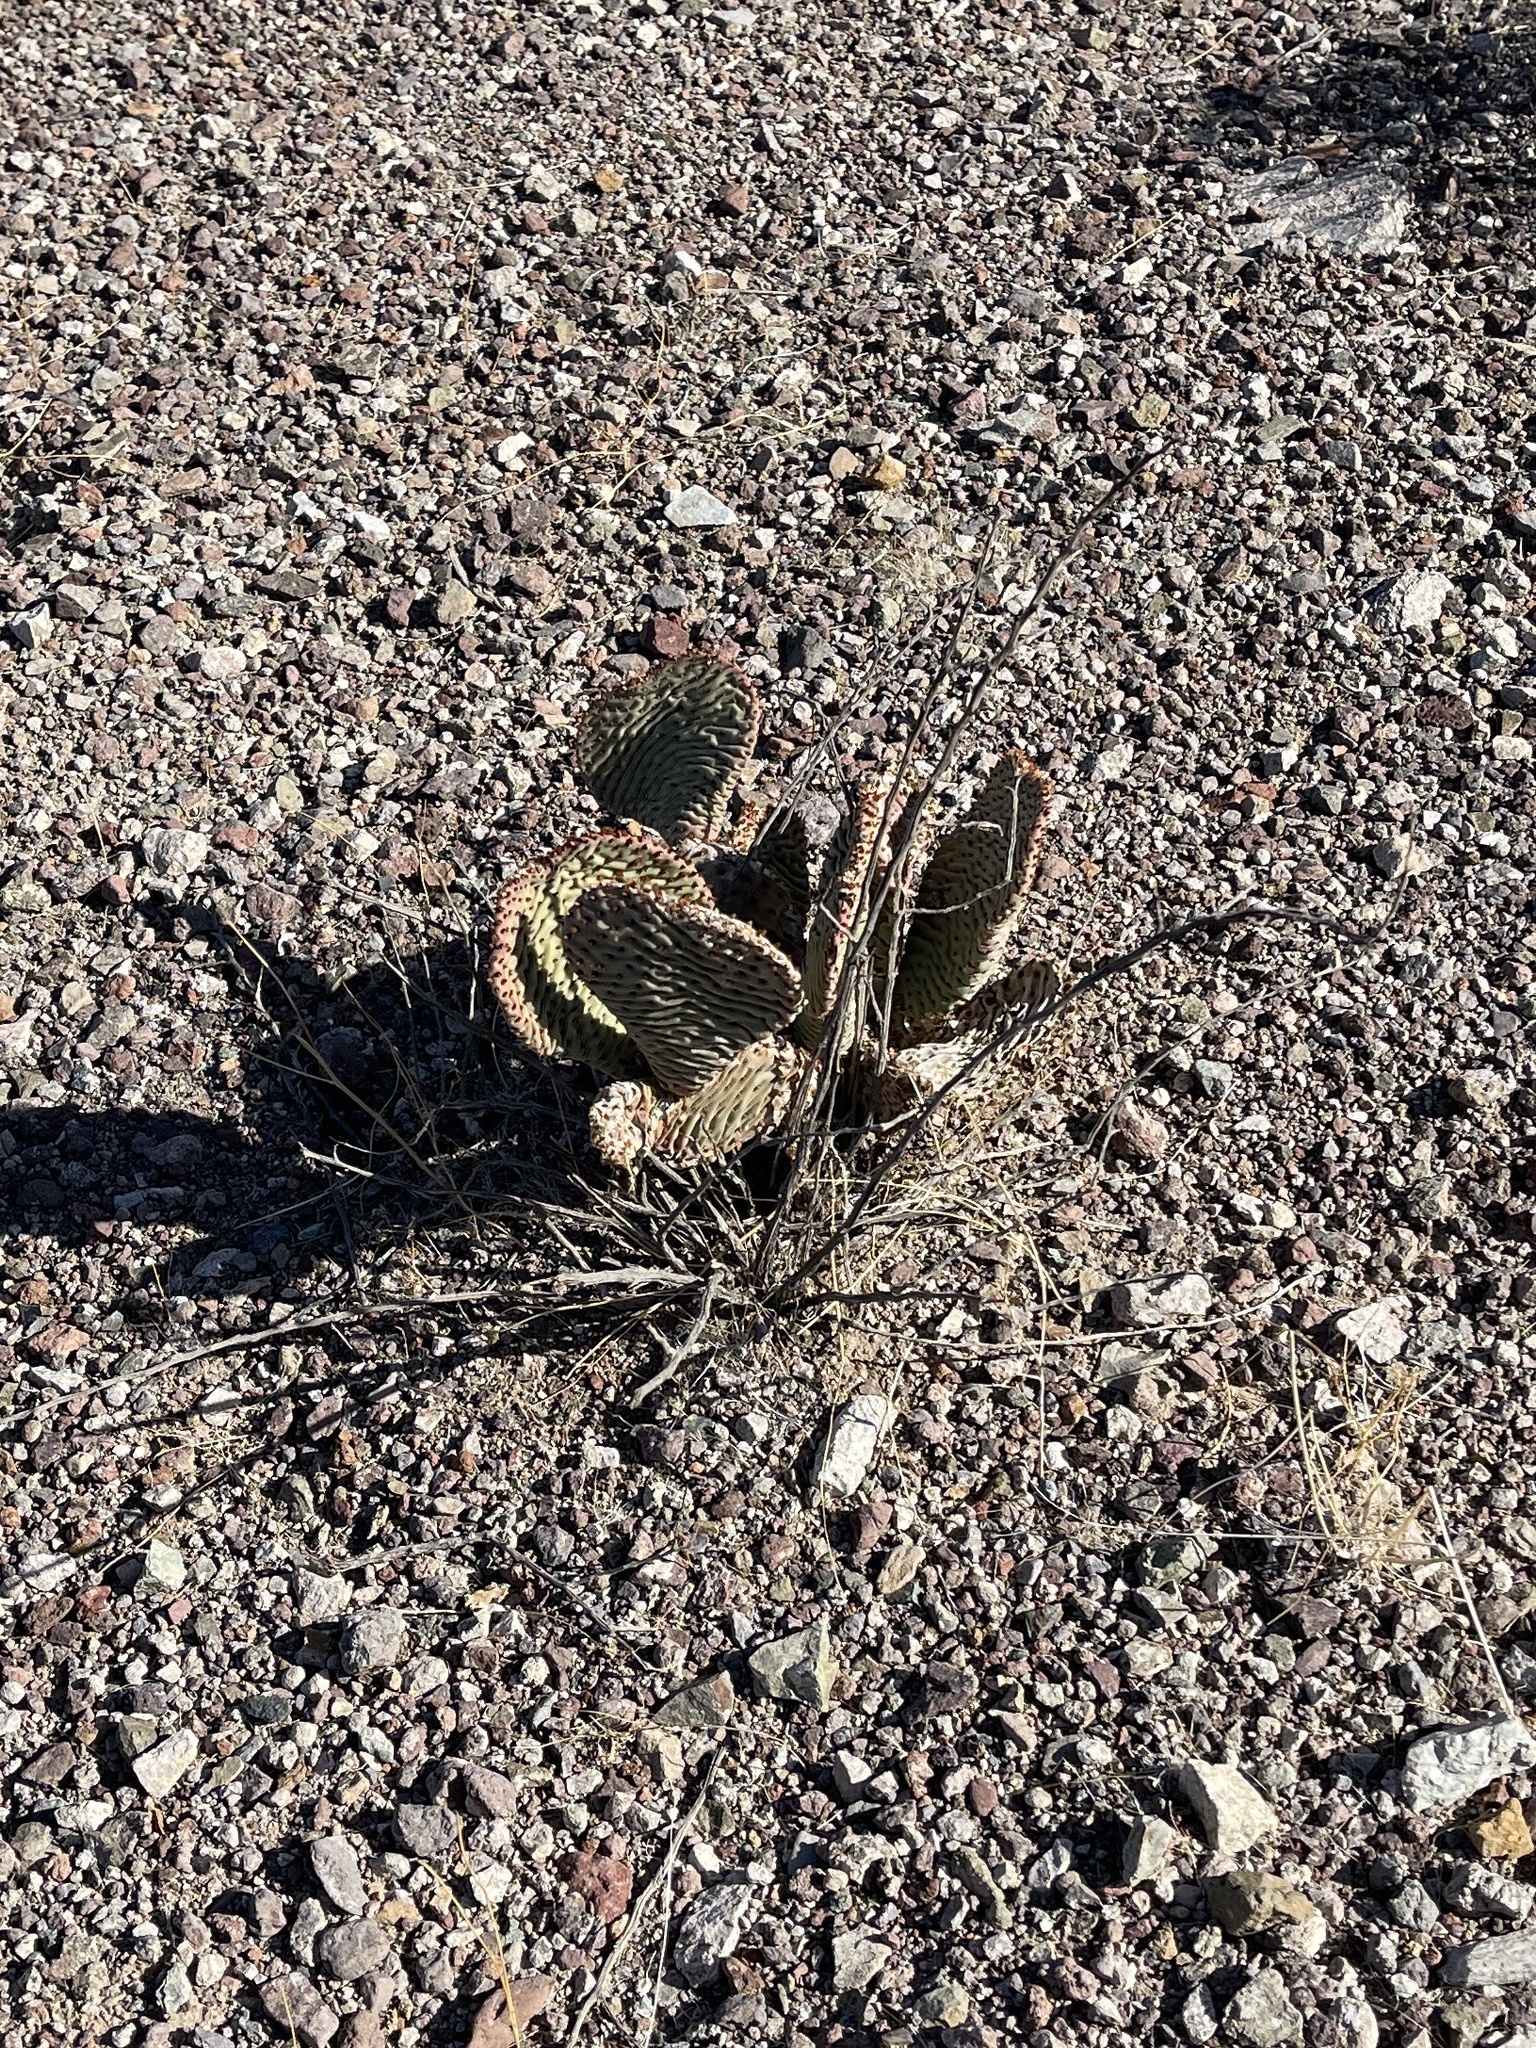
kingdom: Plantae
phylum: Tracheophyta
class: Magnoliopsida
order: Caryophyllales
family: Cactaceae
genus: Opuntia
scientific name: Opuntia basilaris
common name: Beavertail prickly-pear
